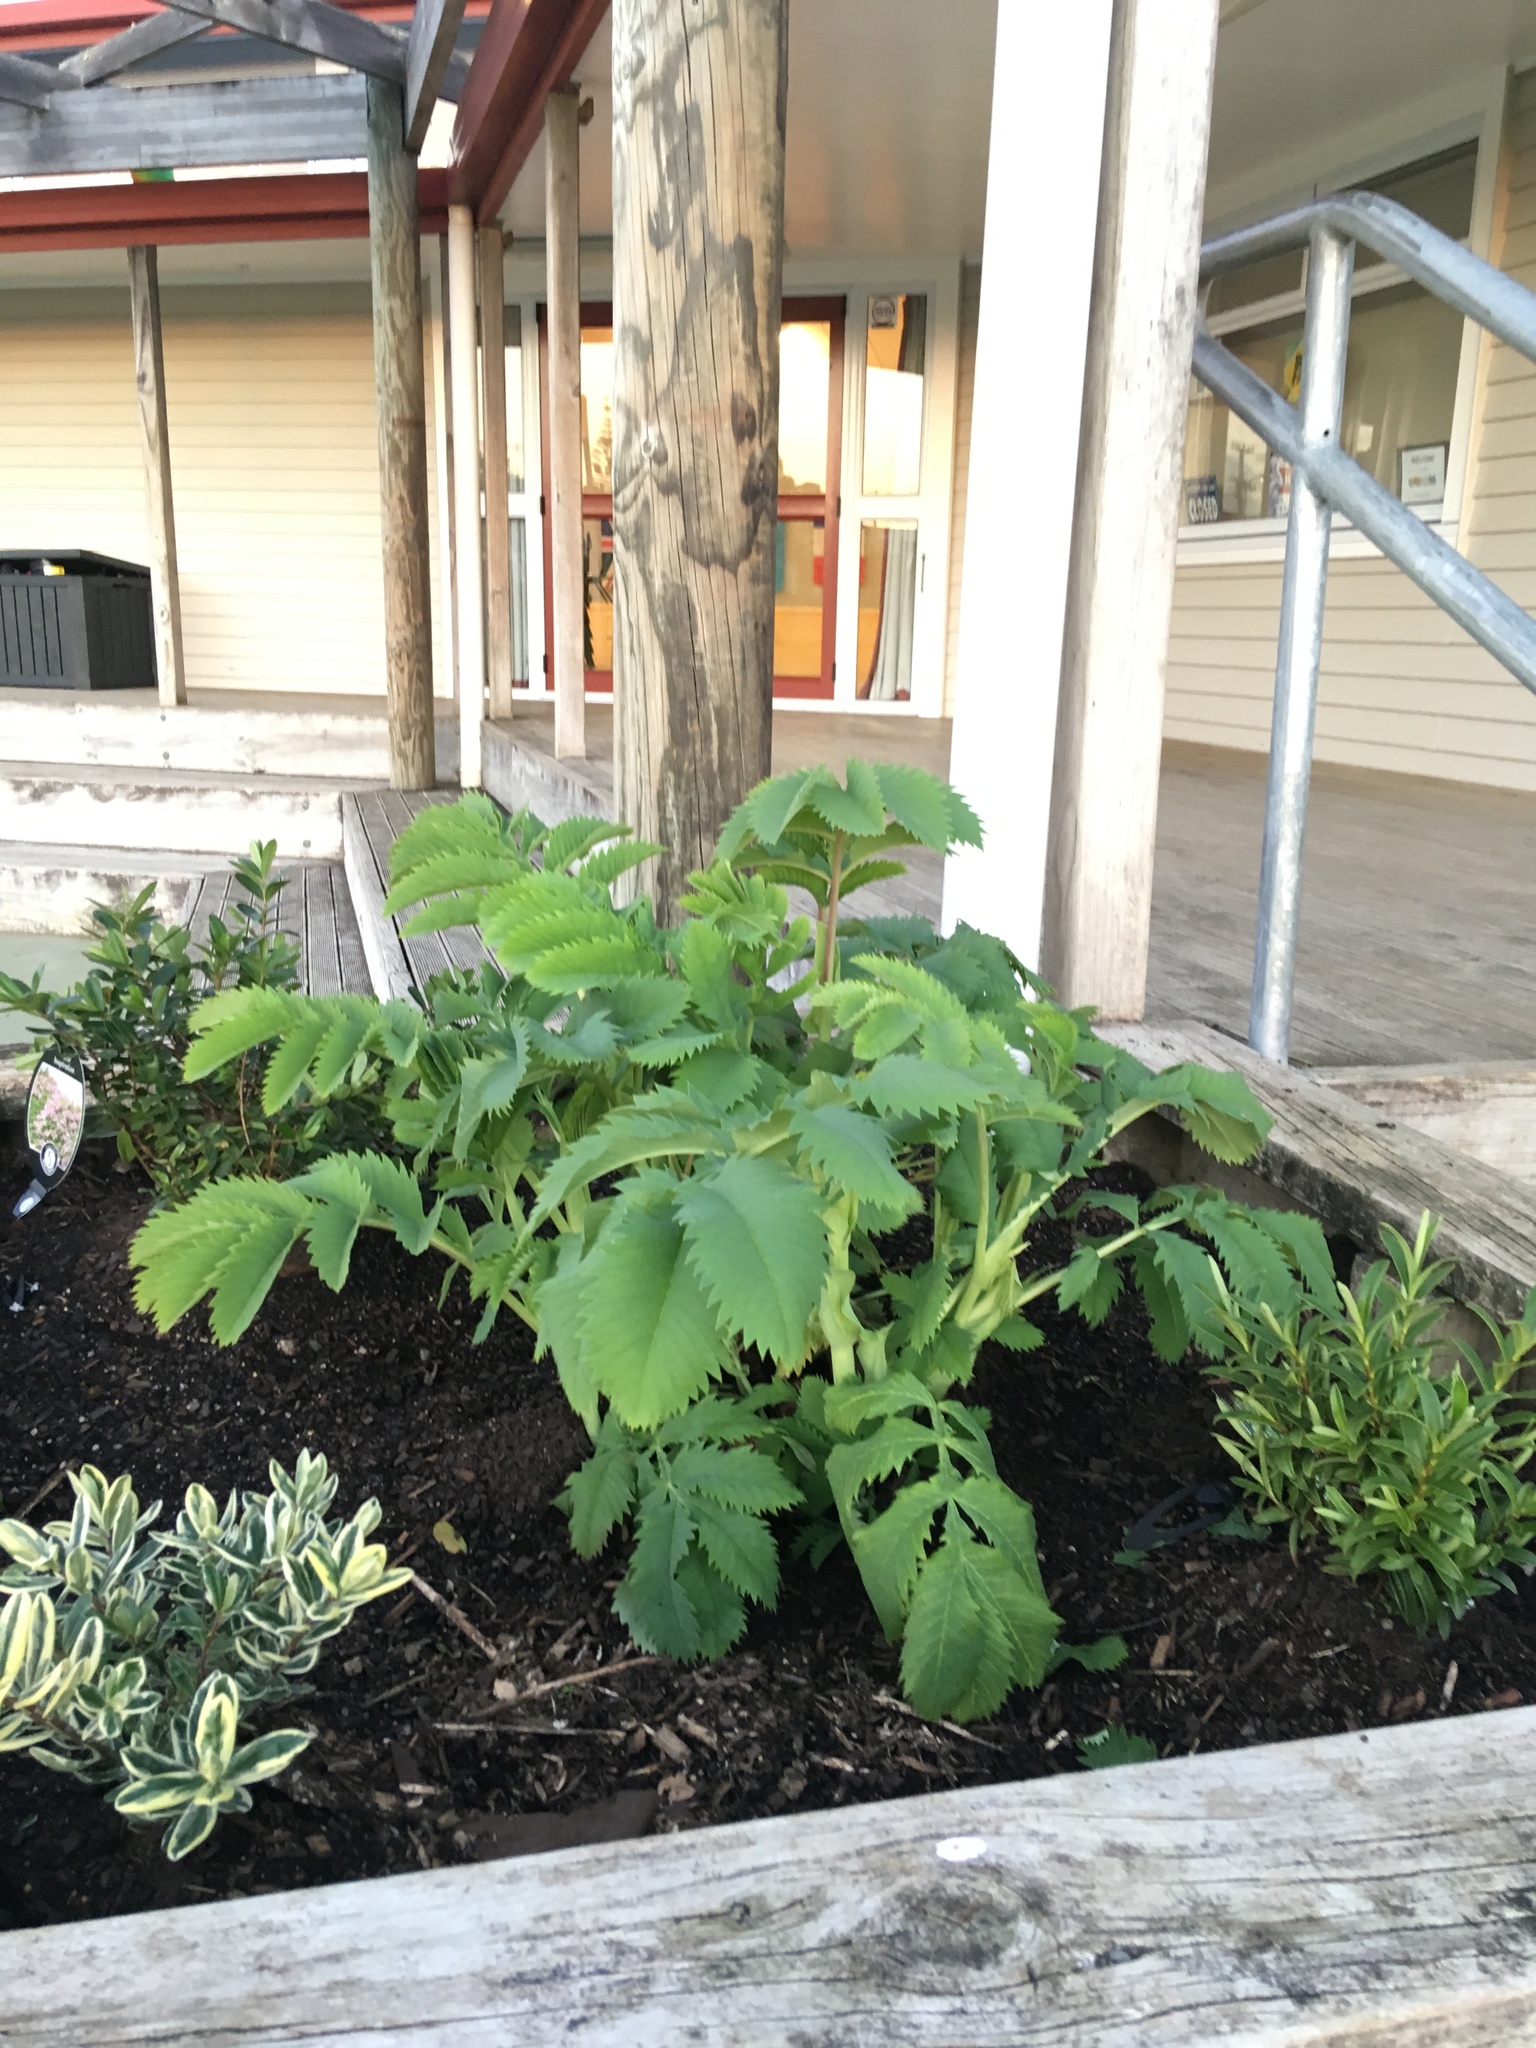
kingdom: Plantae
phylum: Tracheophyta
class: Magnoliopsida
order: Geraniales
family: Melianthaceae
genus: Melianthus
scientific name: Melianthus major
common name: Honey-flower
